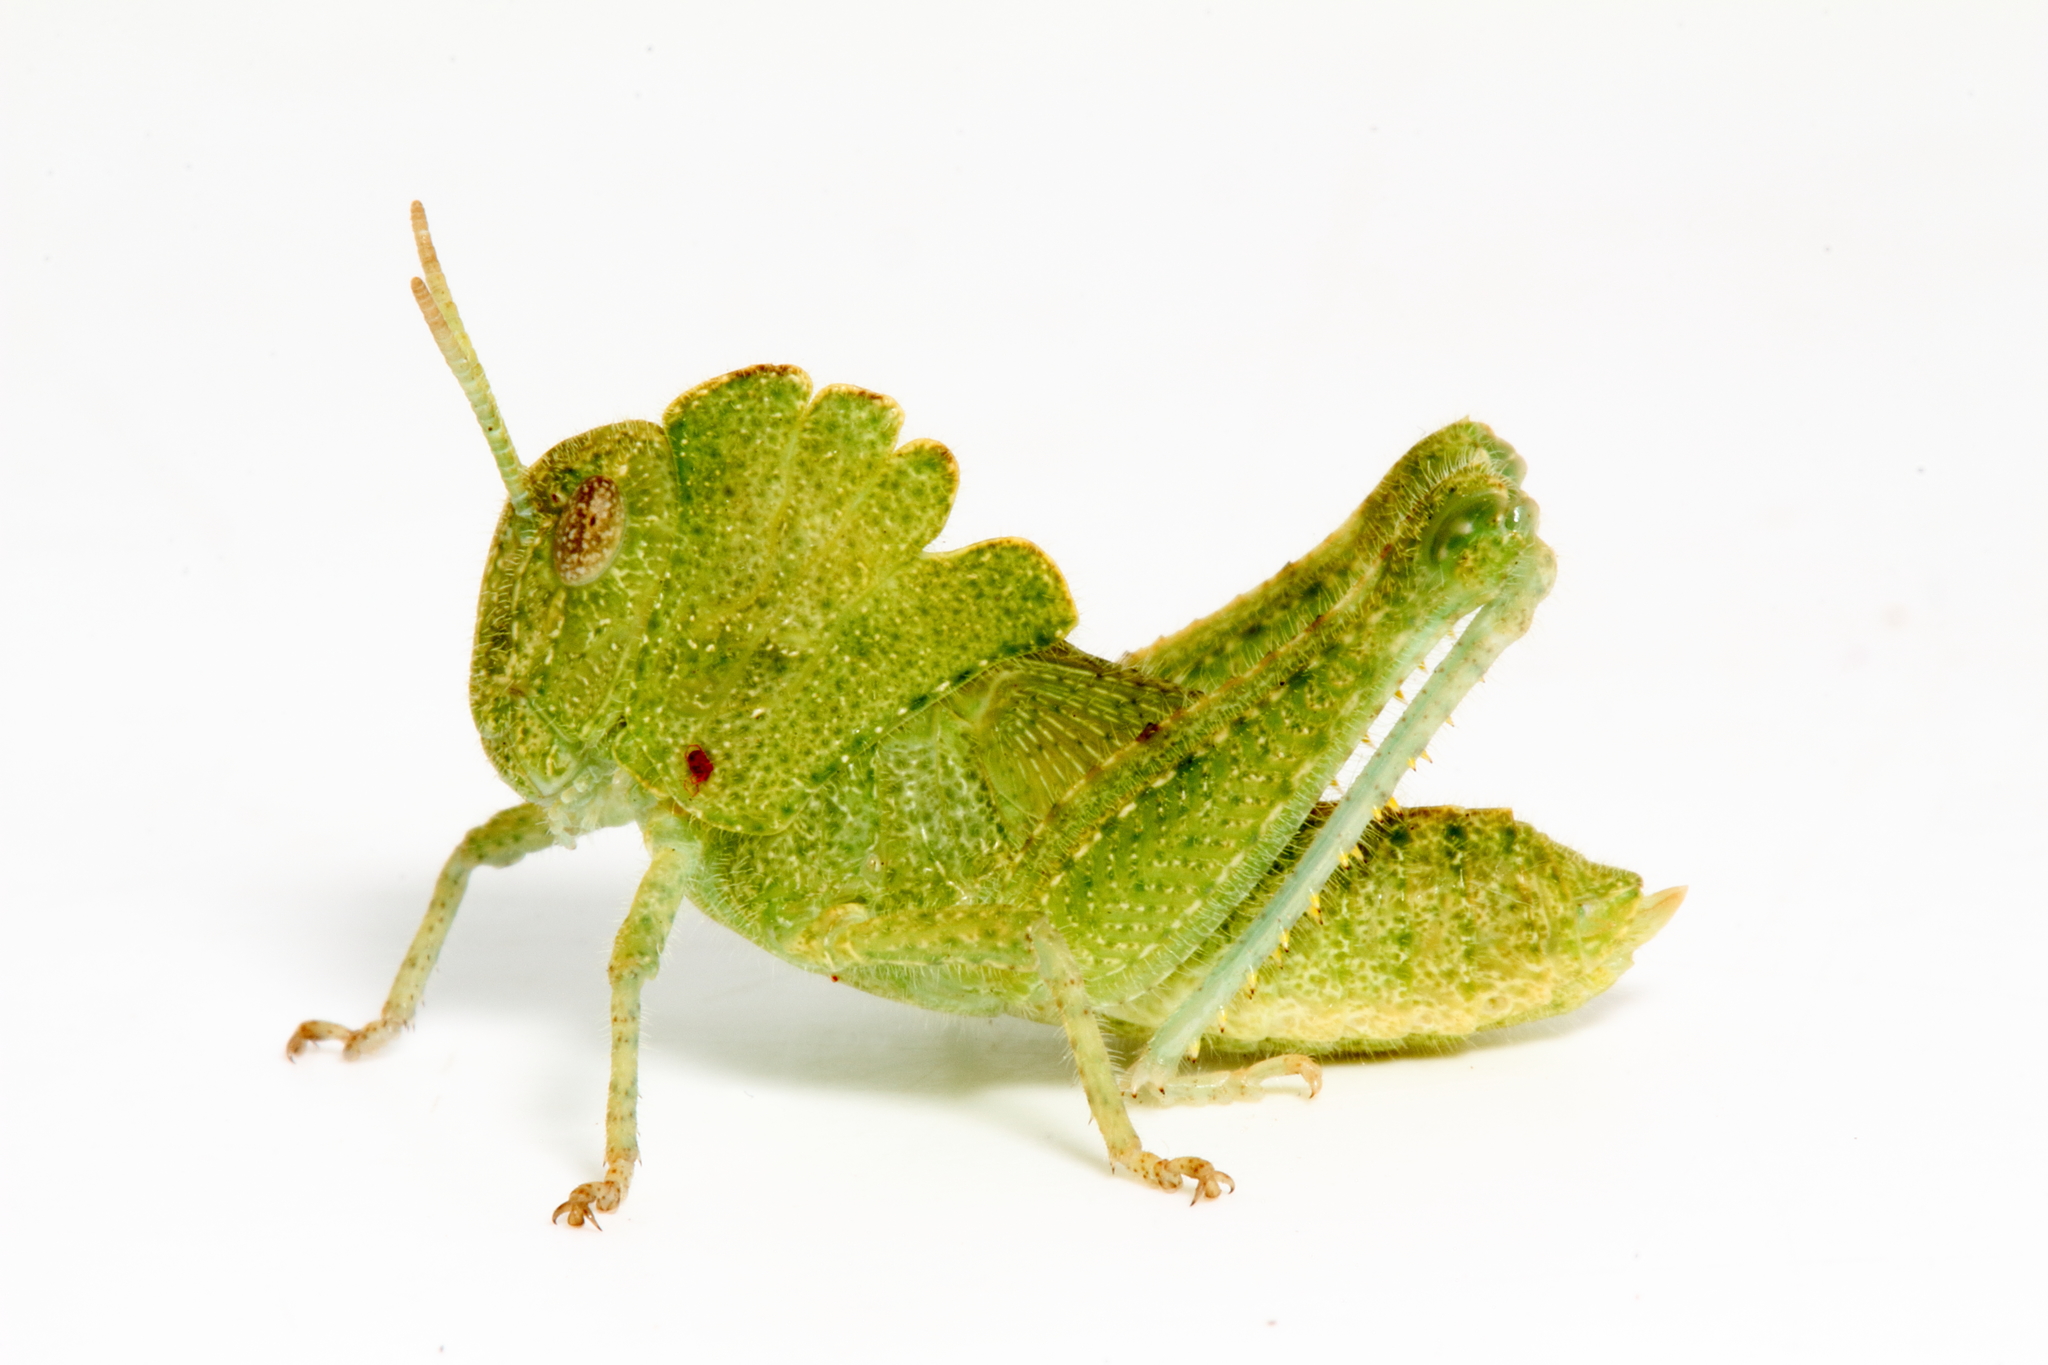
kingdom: Animalia
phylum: Arthropoda
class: Insecta
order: Orthoptera
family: Acrididae
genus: Ecphantus
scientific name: Ecphantus quadrilobus
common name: Crested tooth grinder
